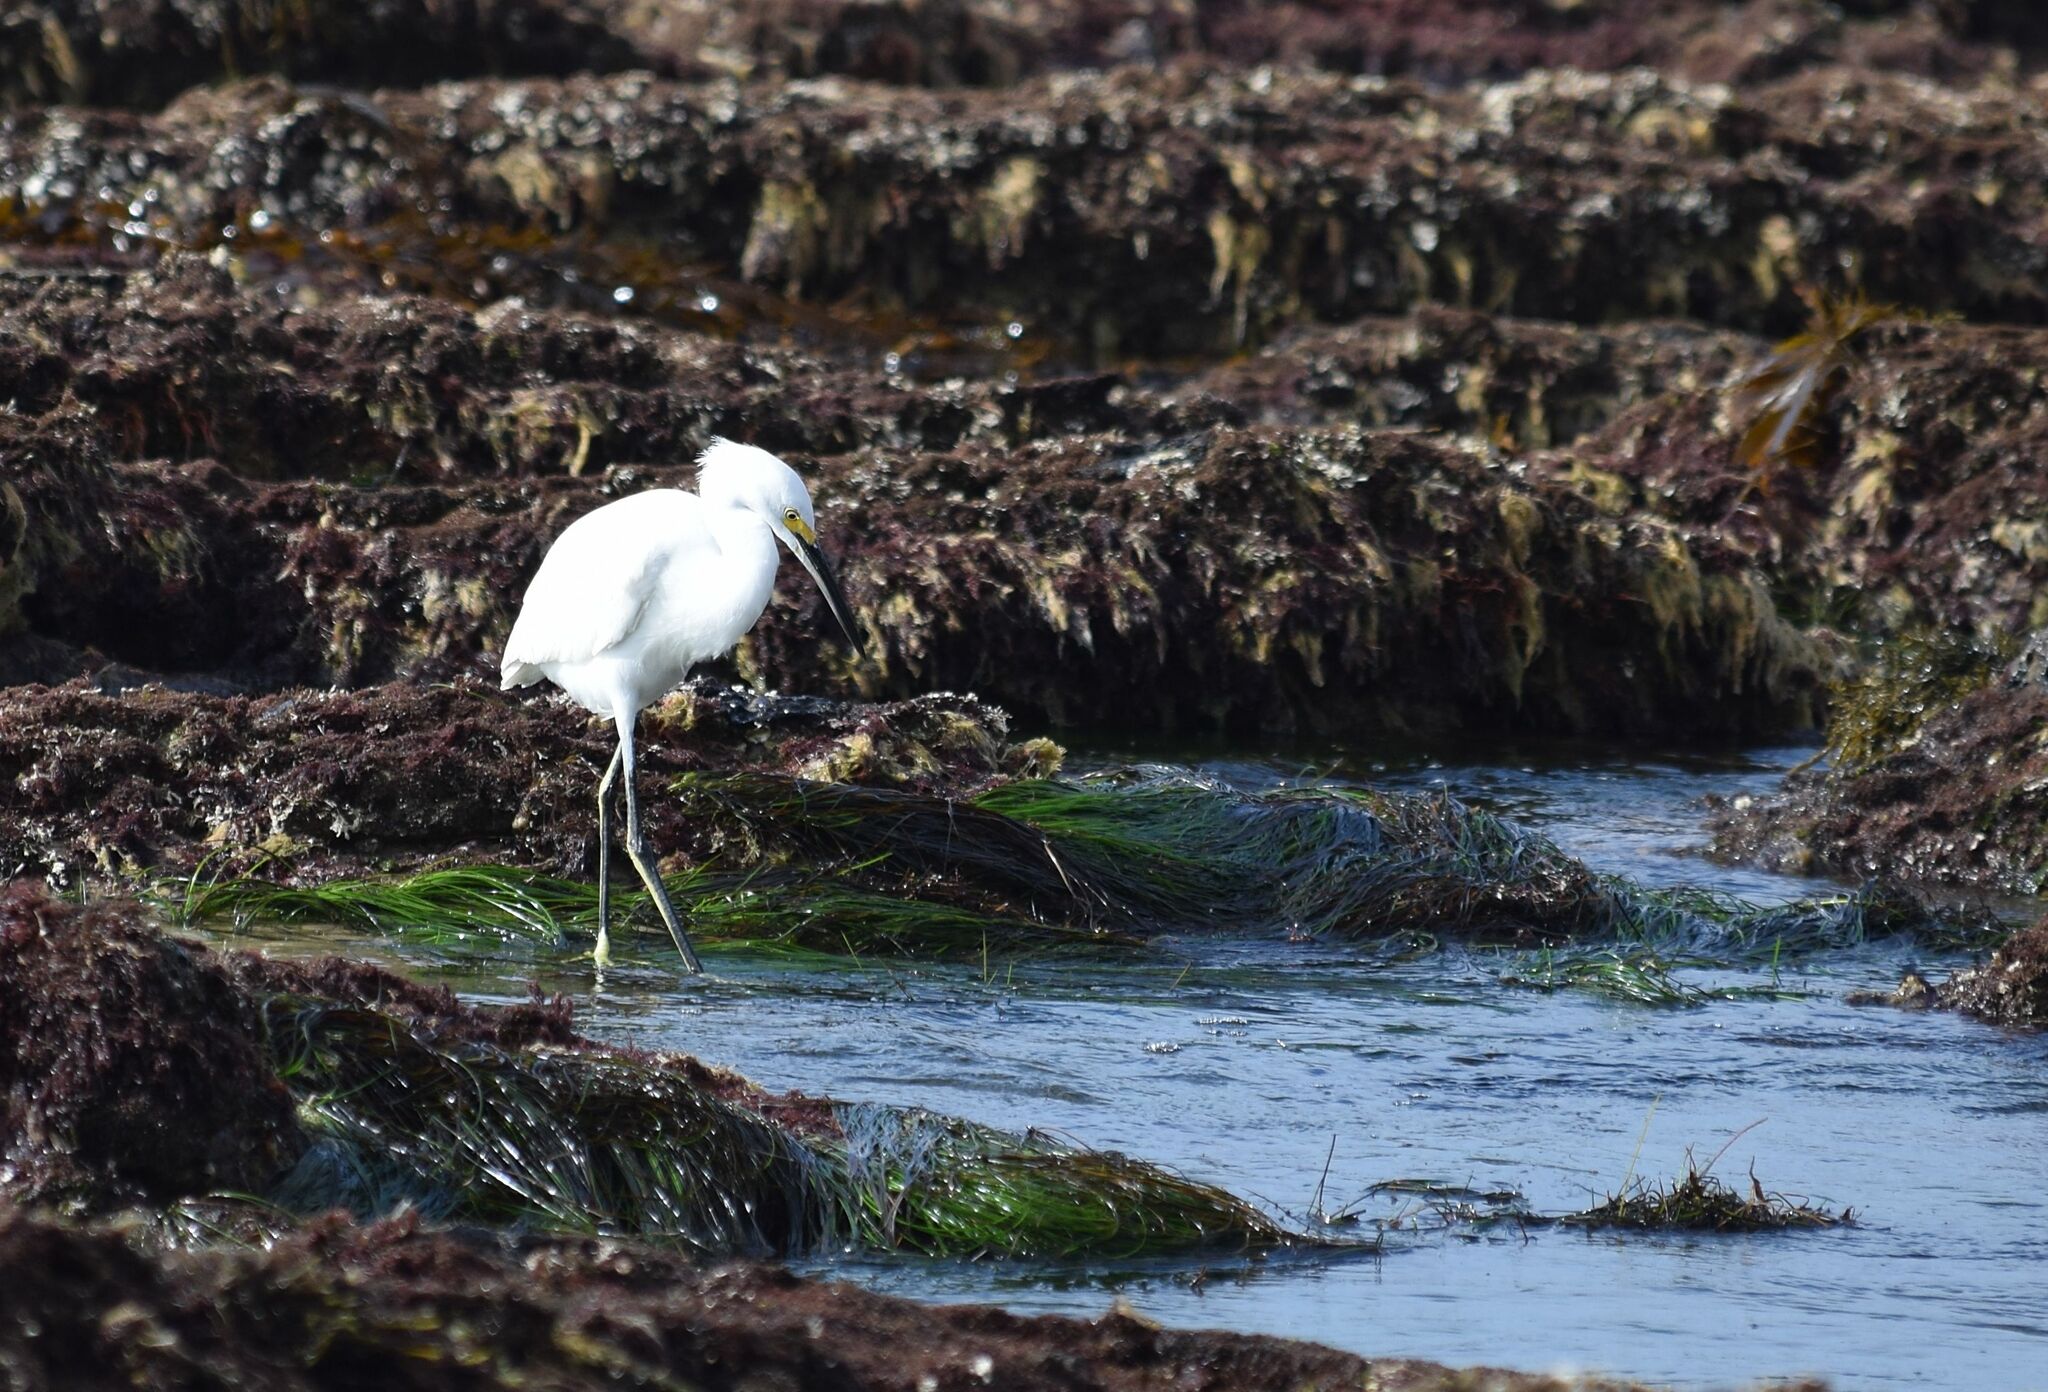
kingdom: Animalia
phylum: Chordata
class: Aves
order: Pelecaniformes
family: Ardeidae
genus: Egretta
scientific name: Egretta thula
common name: Snowy egret
